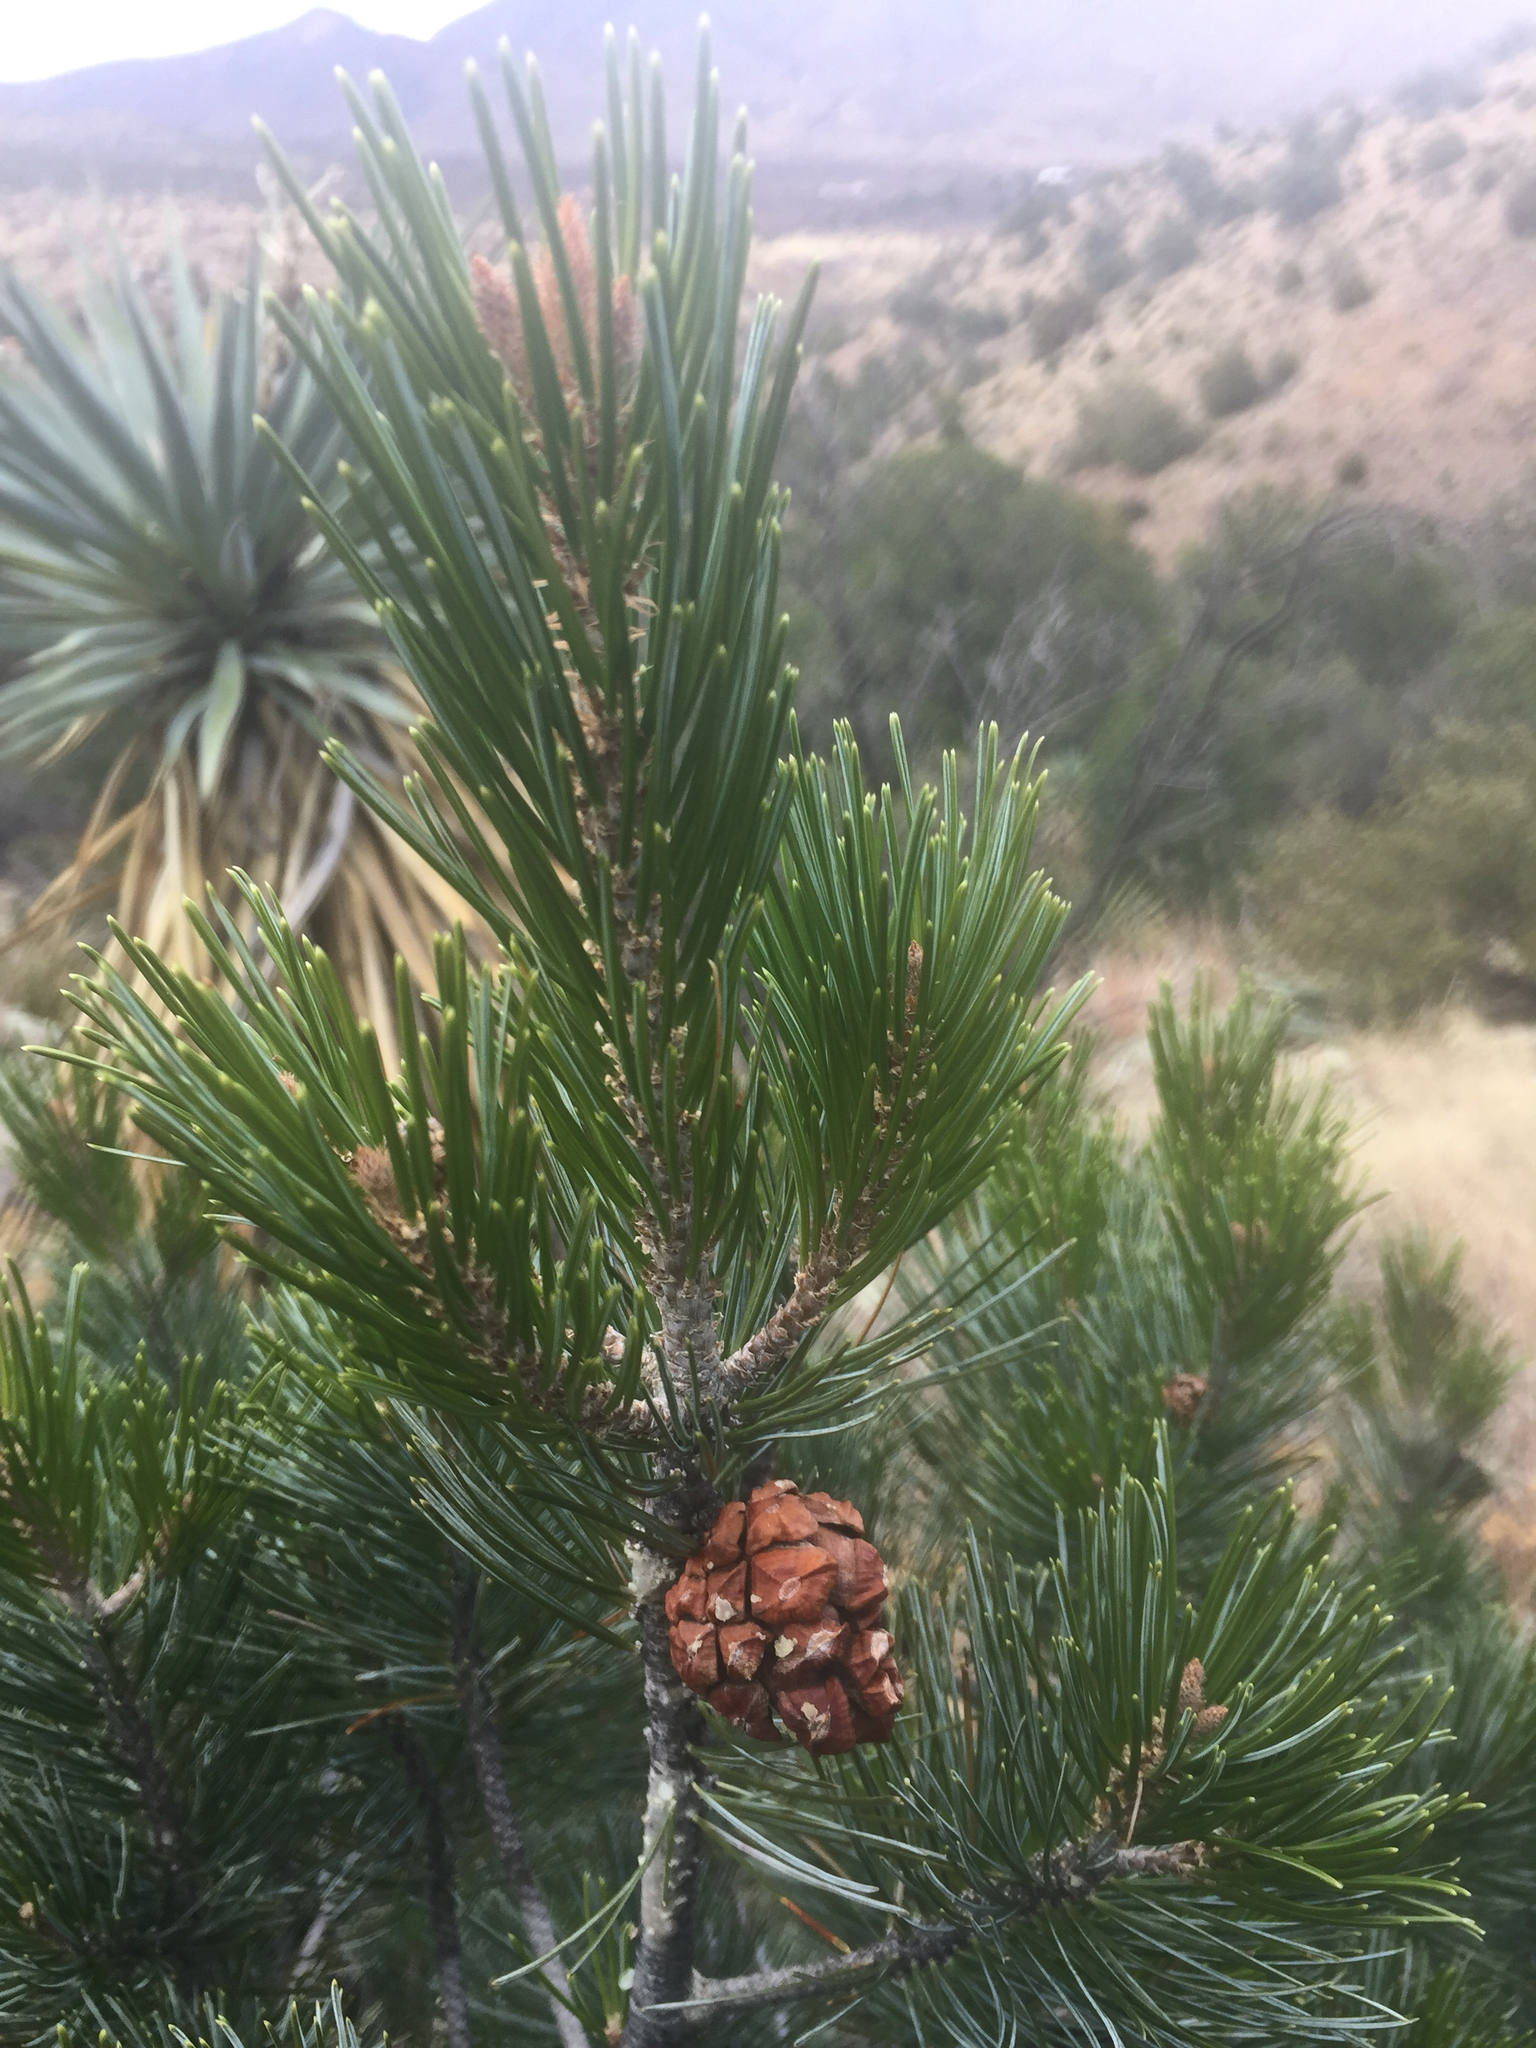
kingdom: Plantae
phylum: Tracheophyta
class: Pinopsida
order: Pinales
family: Pinaceae
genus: Pinus
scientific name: Pinus discolor
